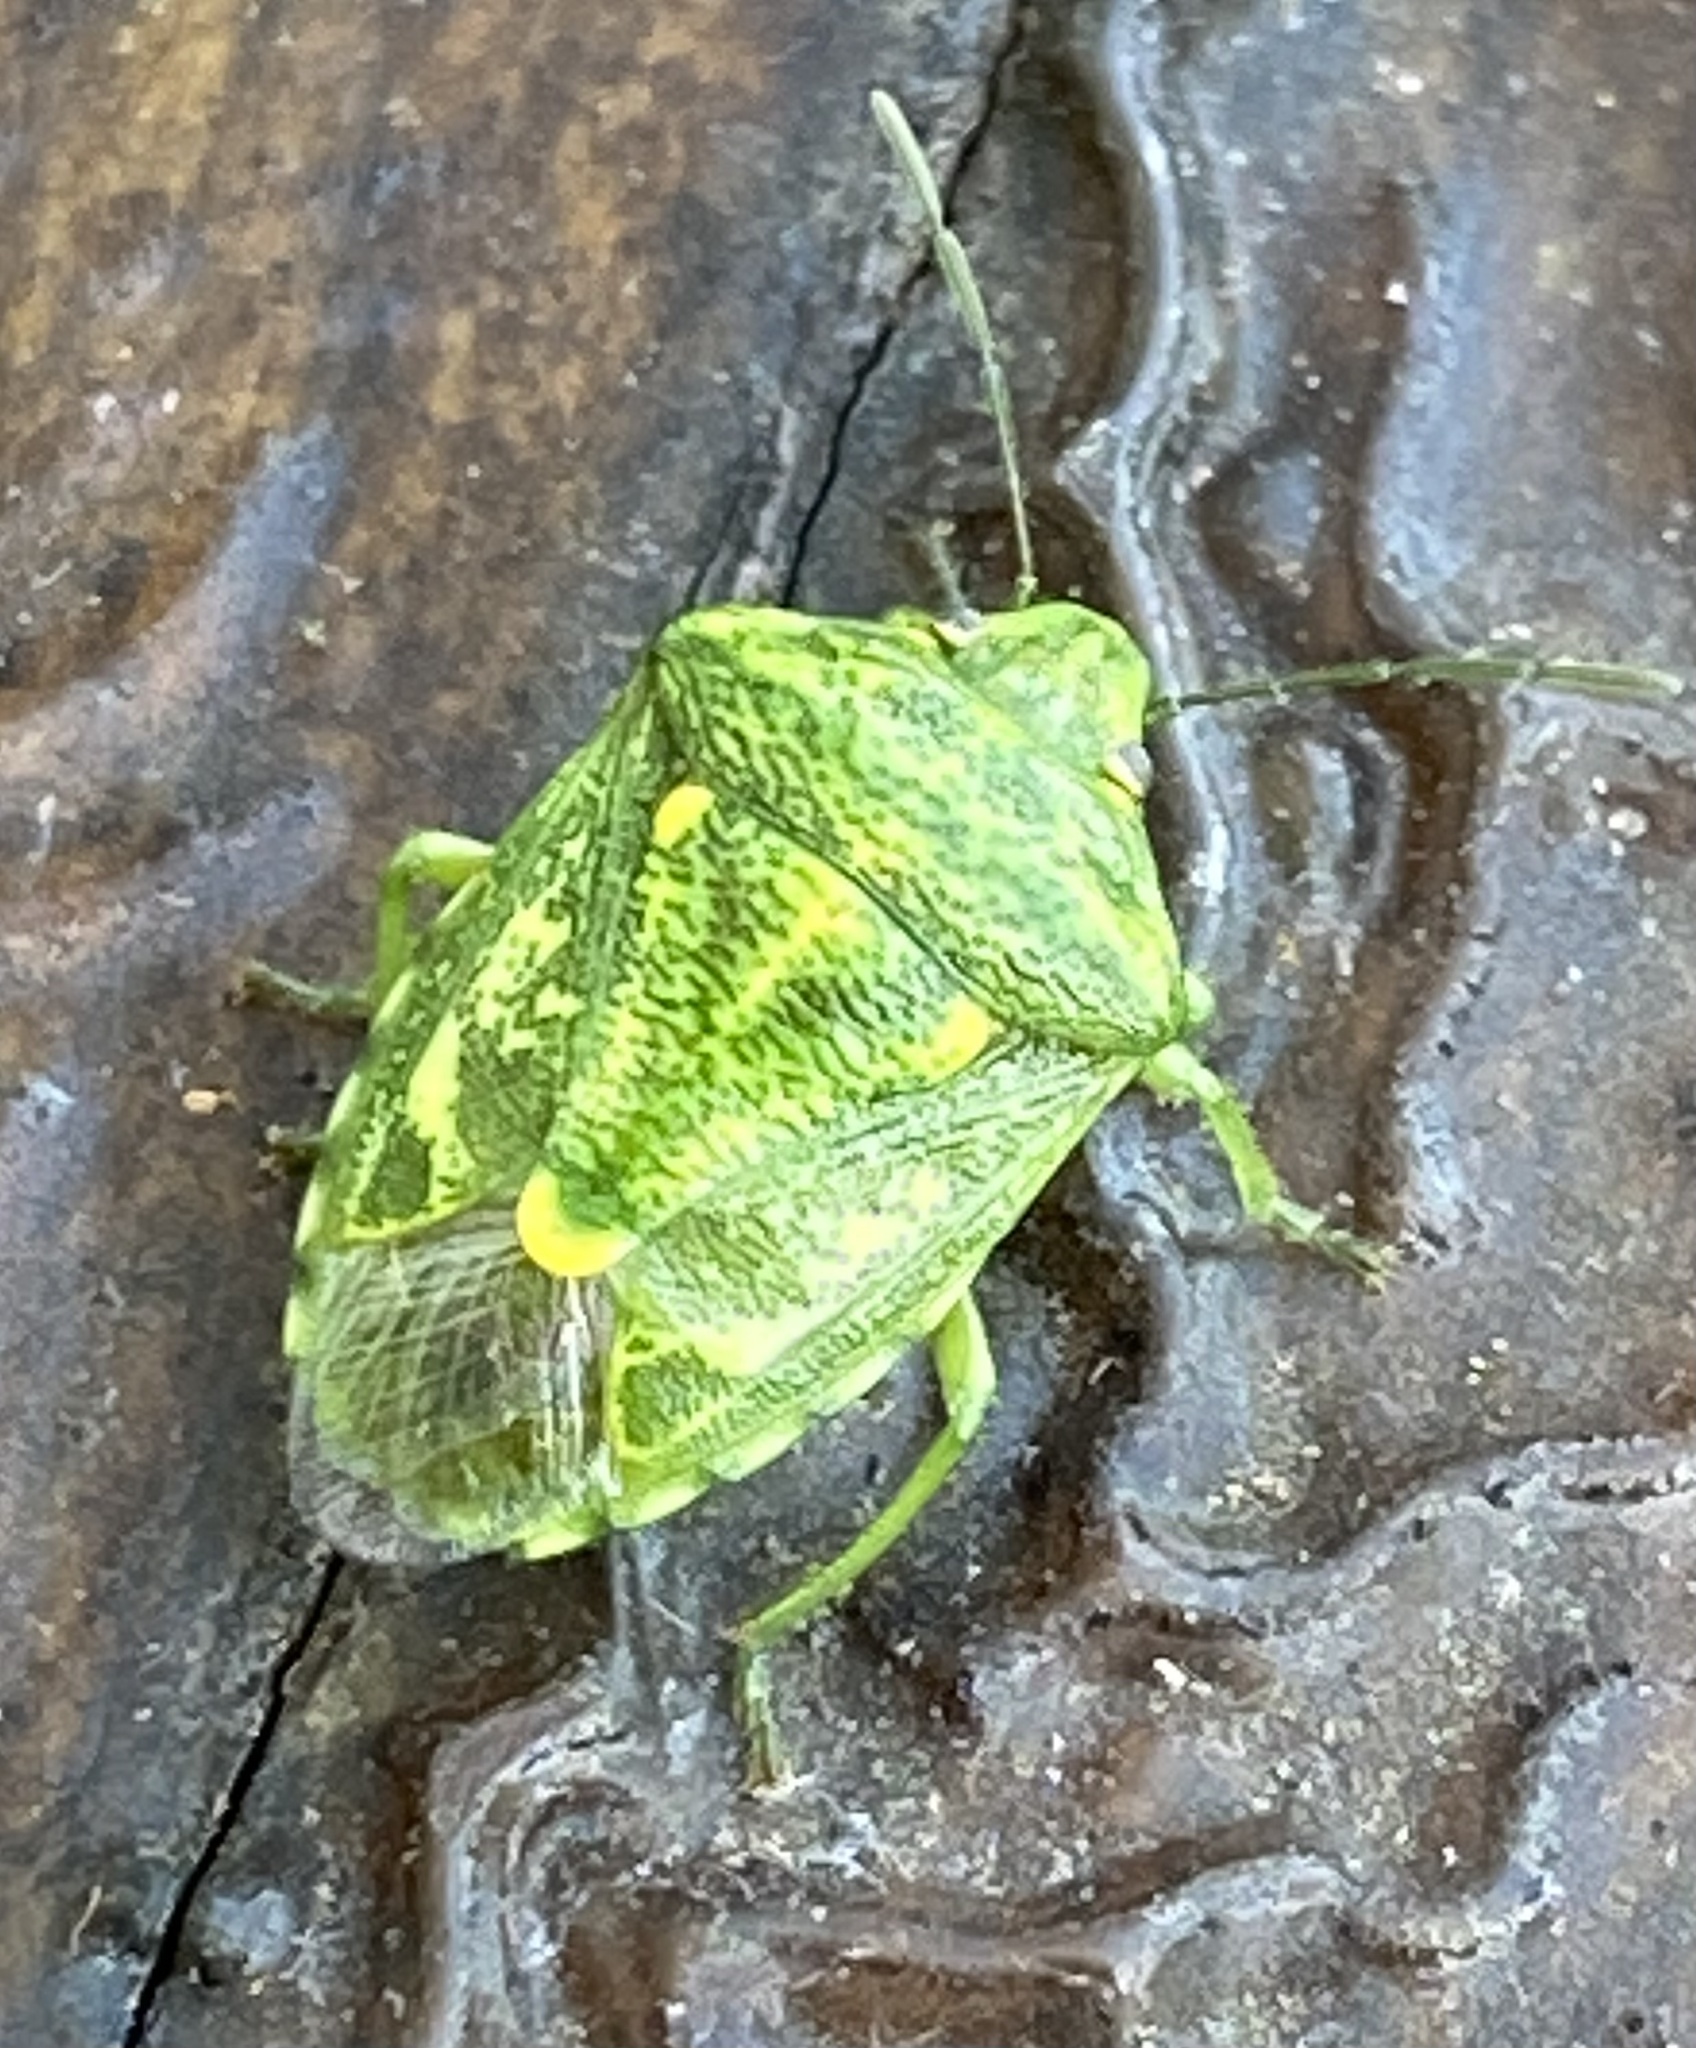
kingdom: Animalia
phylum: Arthropoda
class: Insecta
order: Hemiptera
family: Pentatomidae
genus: Banasa
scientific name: Banasa euchlora
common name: Cedar berry bug
